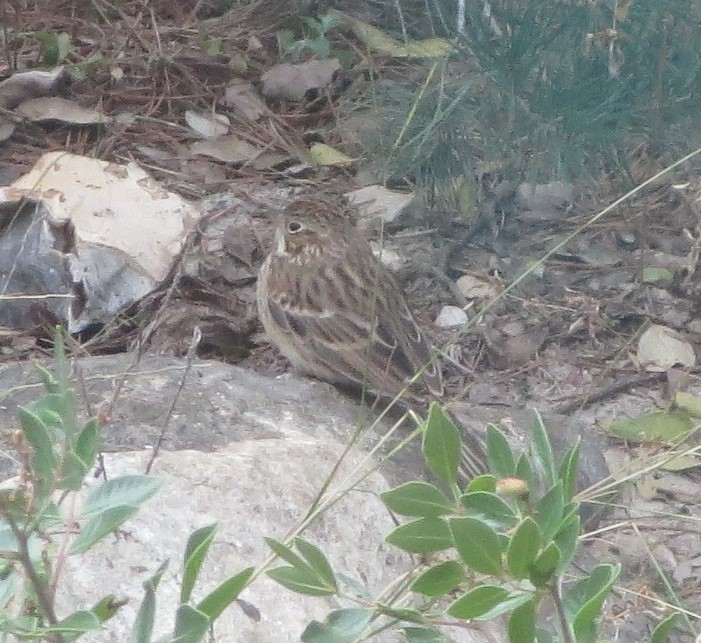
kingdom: Animalia
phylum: Chordata
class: Aves
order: Passeriformes
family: Passerellidae
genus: Pooecetes
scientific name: Pooecetes gramineus
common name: Vesper sparrow
